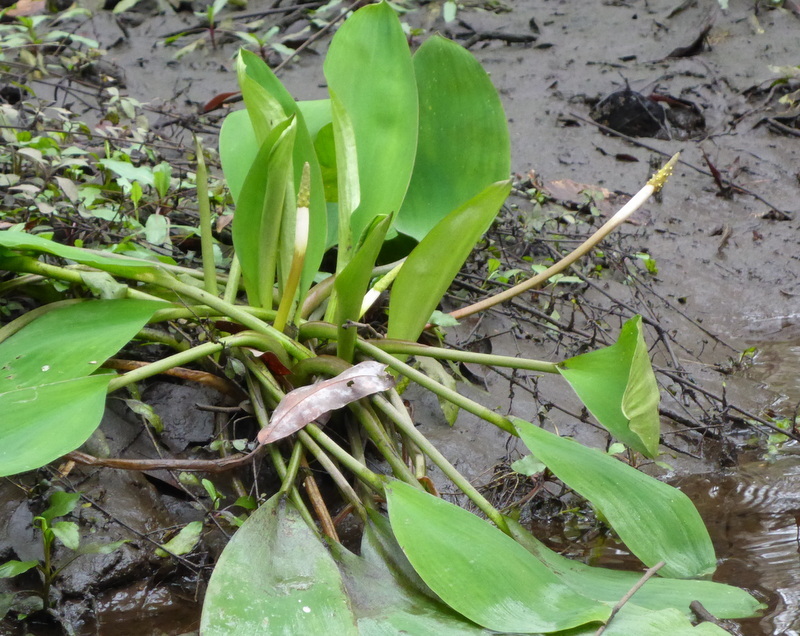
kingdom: Plantae
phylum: Tracheophyta
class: Liliopsida
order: Alismatales
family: Araceae
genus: Orontium
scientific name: Orontium aquaticum
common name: Golden-club
